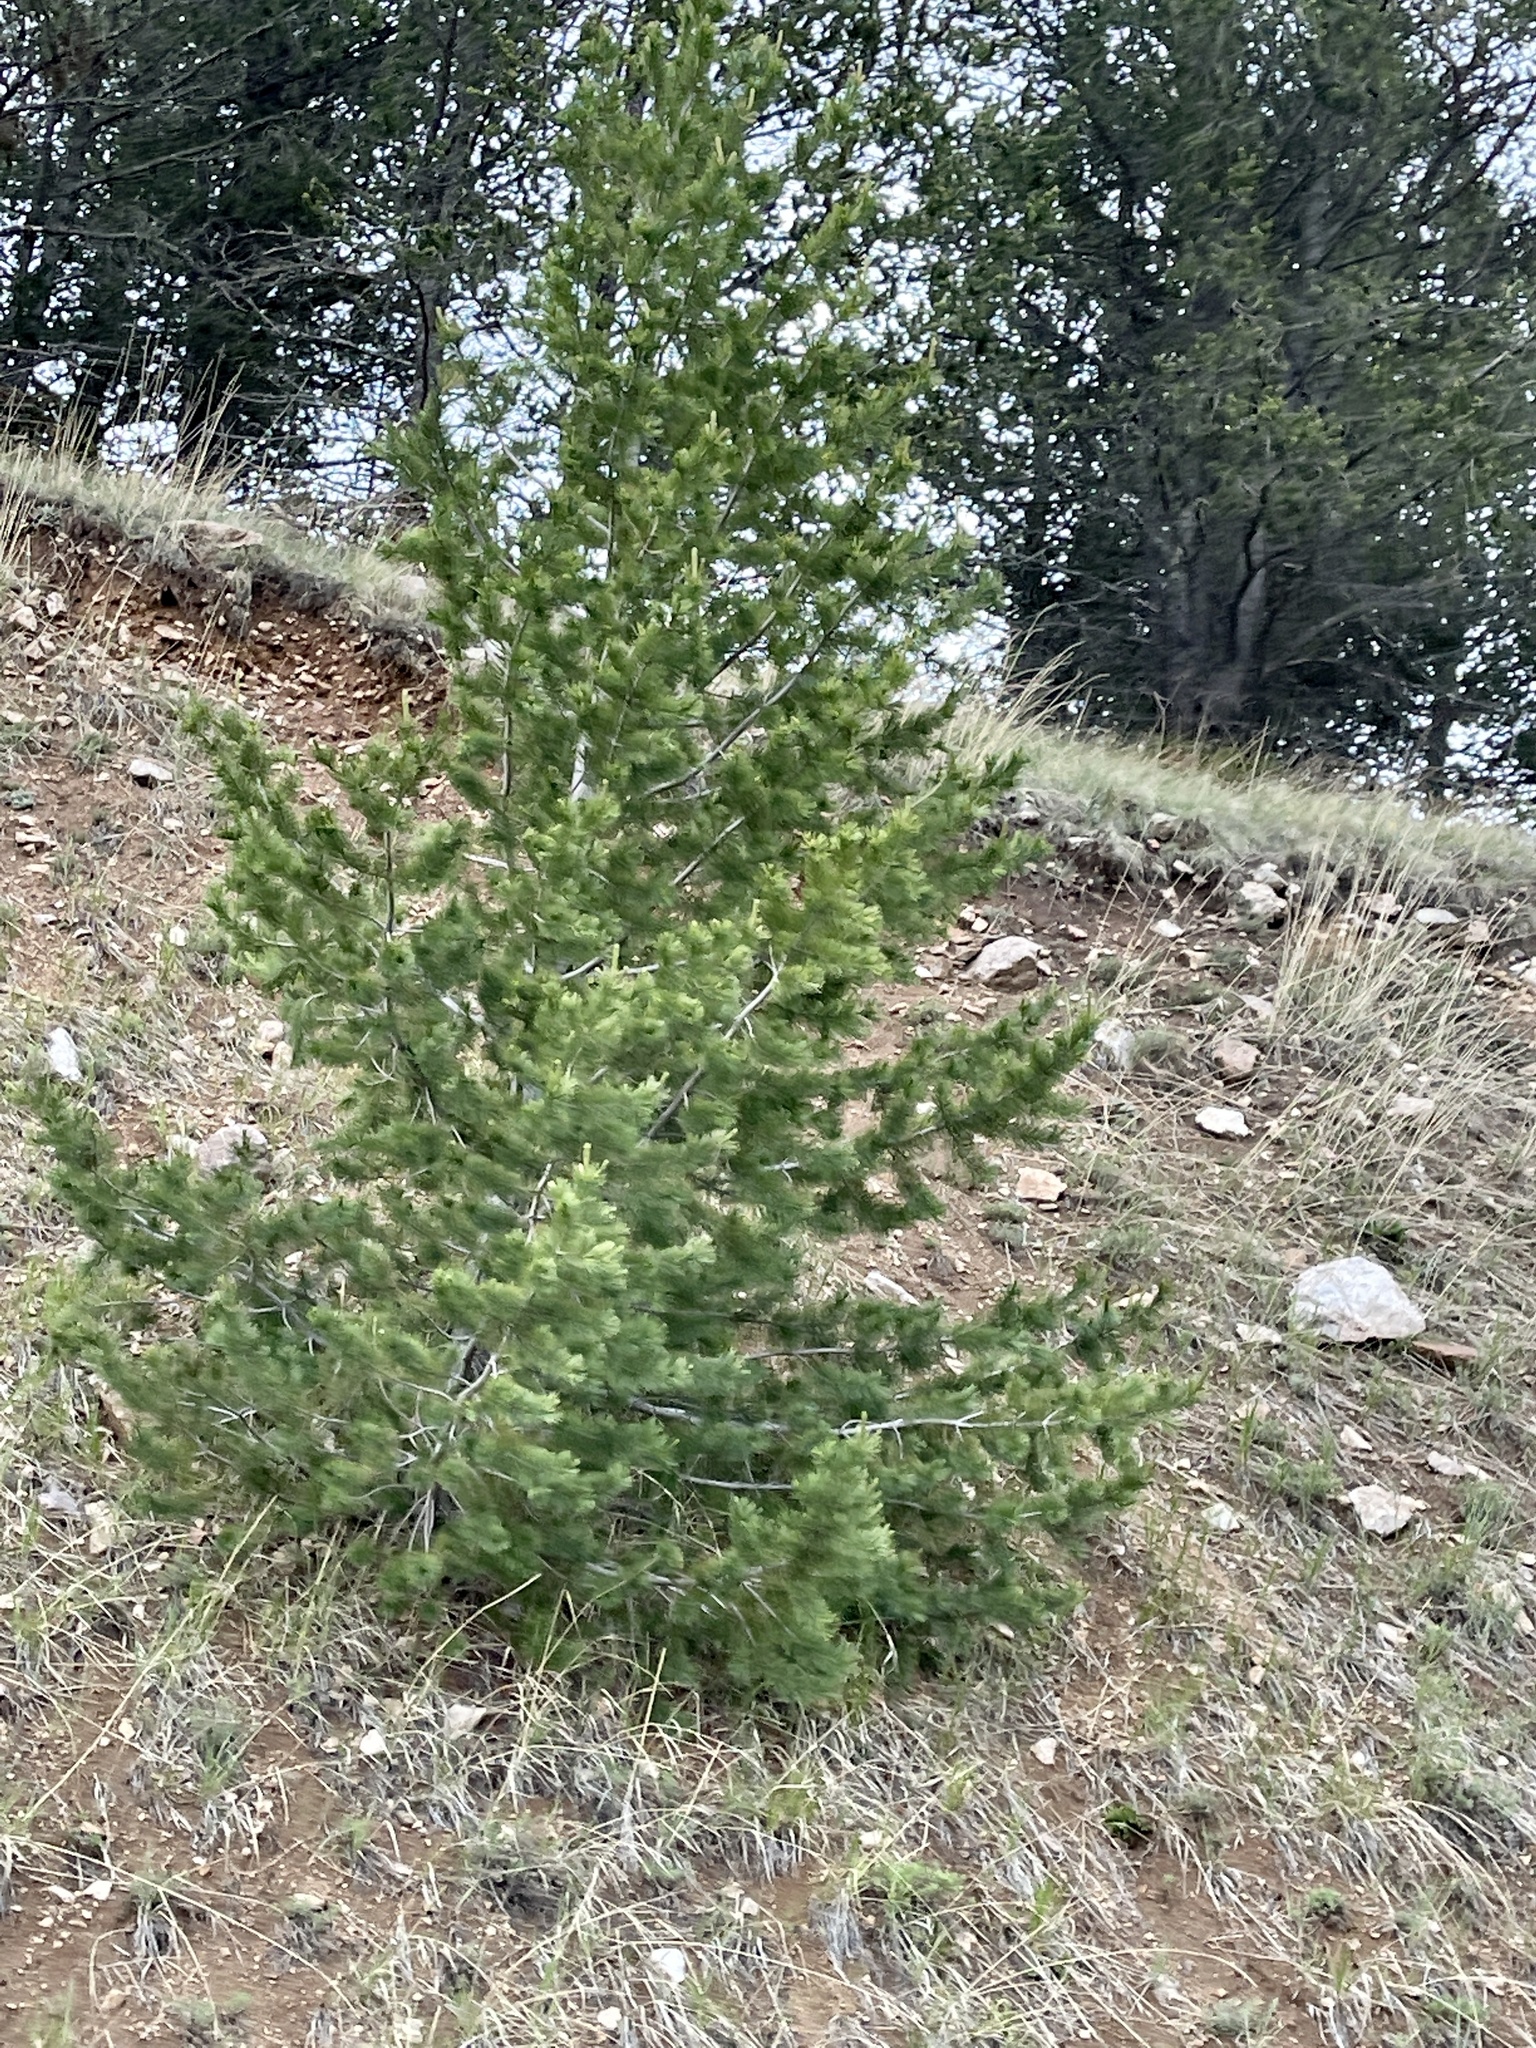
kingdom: Plantae
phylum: Tracheophyta
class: Pinopsida
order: Pinales
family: Pinaceae
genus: Pinus
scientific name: Pinus flexilis
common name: Limber pine
